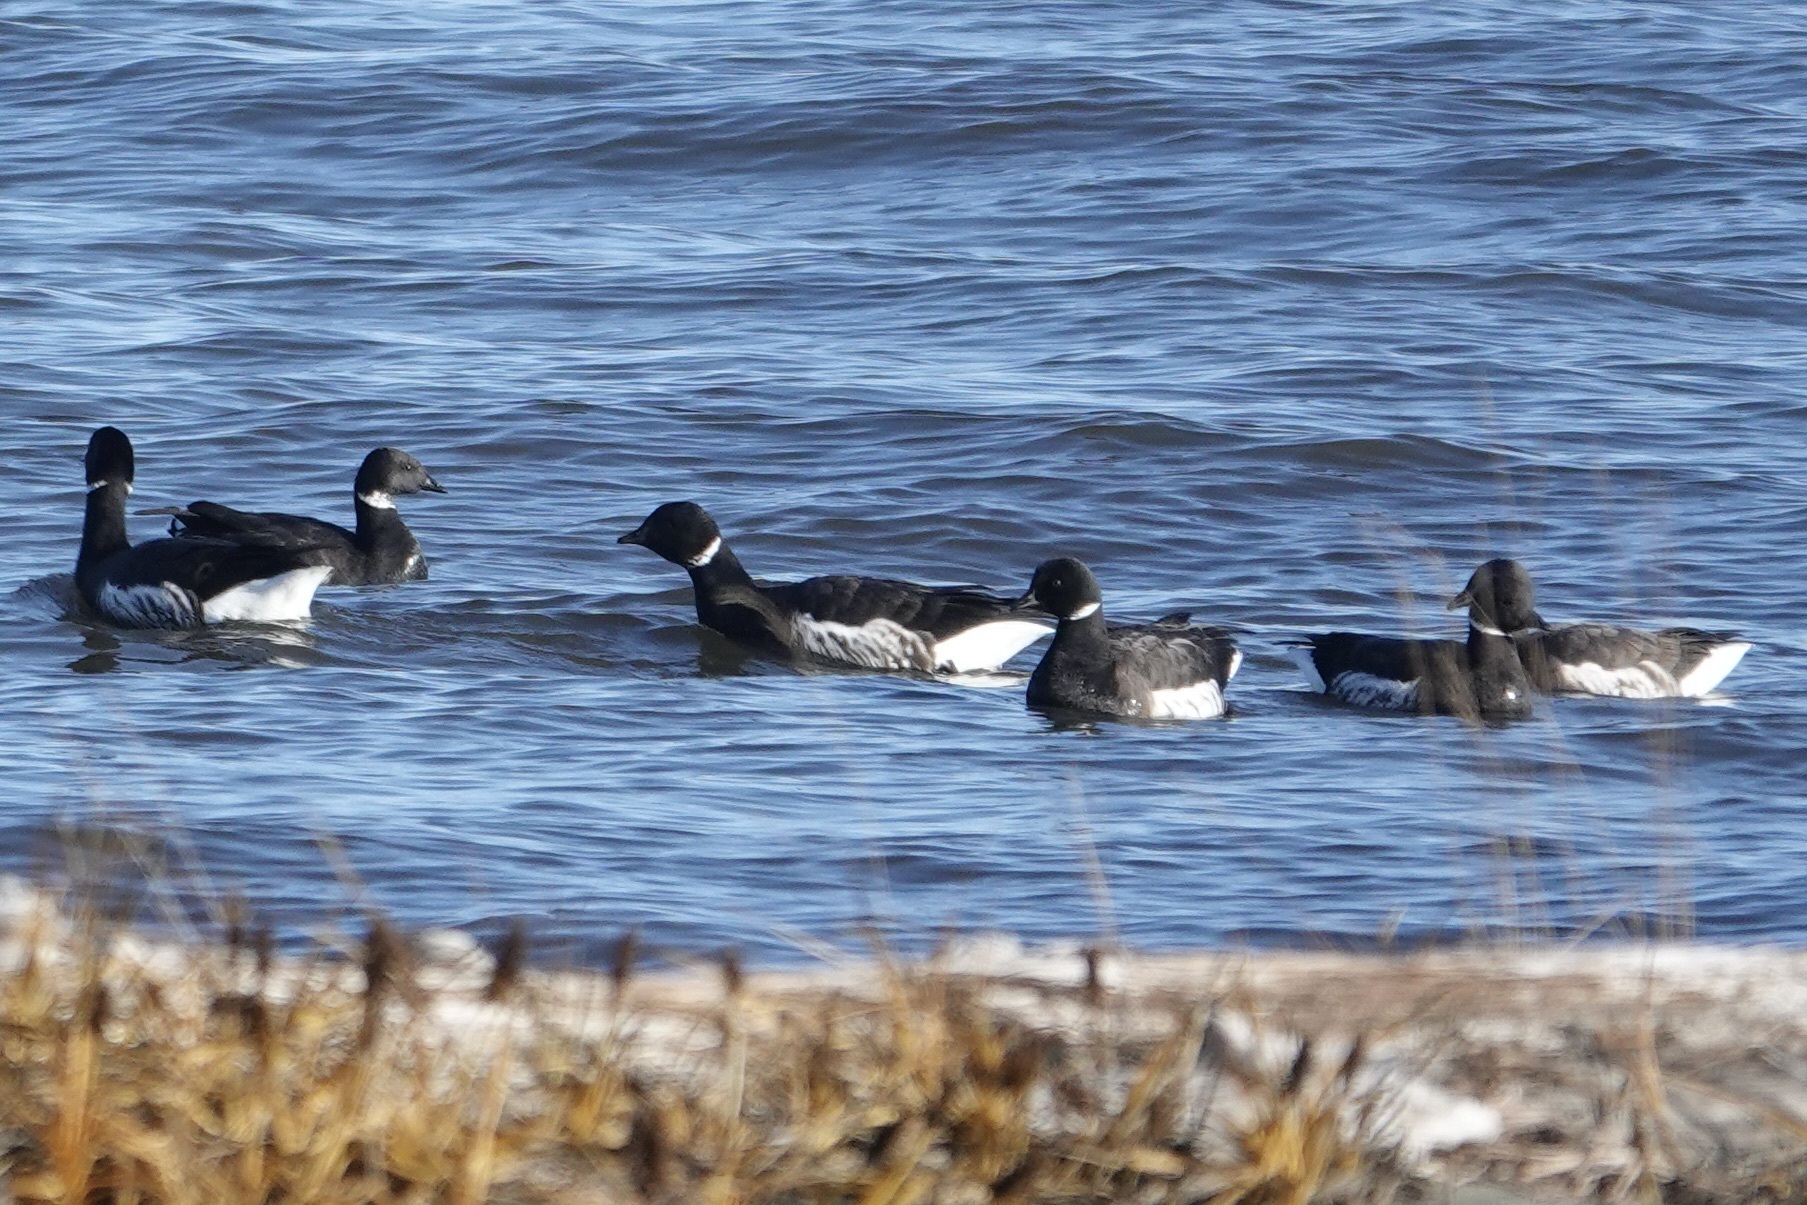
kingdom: Animalia
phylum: Chordata
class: Aves
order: Anseriformes
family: Anatidae
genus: Branta
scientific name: Branta bernicla
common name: Brant goose
